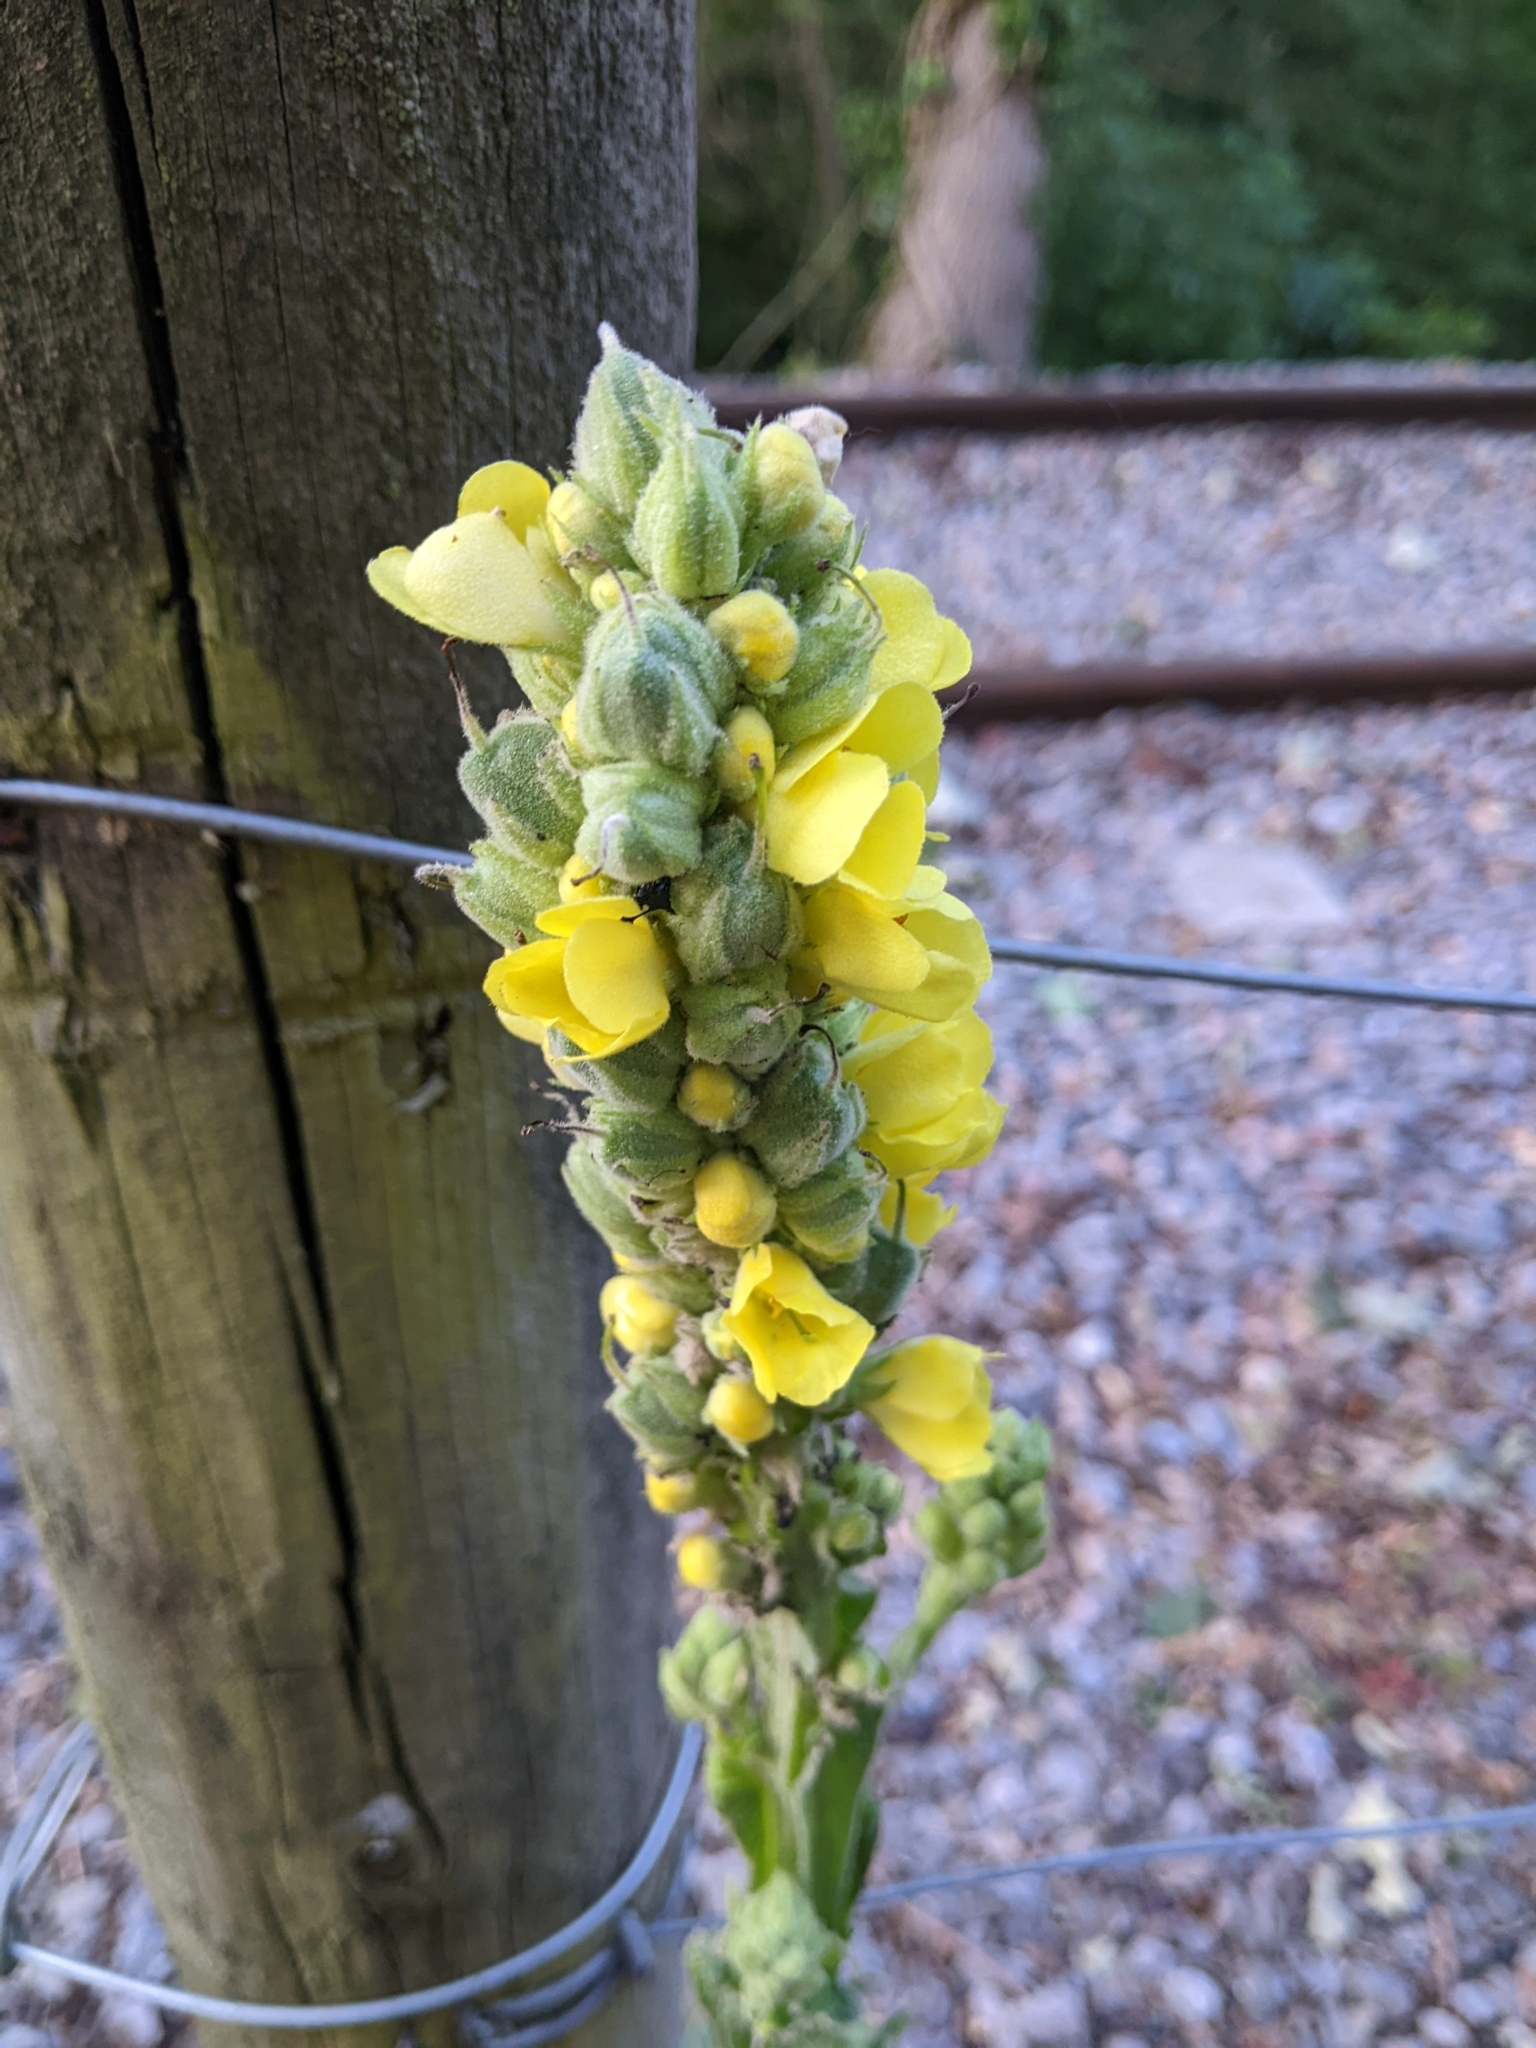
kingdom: Plantae
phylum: Tracheophyta
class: Magnoliopsida
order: Lamiales
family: Scrophulariaceae
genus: Verbascum
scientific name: Verbascum thapsus
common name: Common mullein
